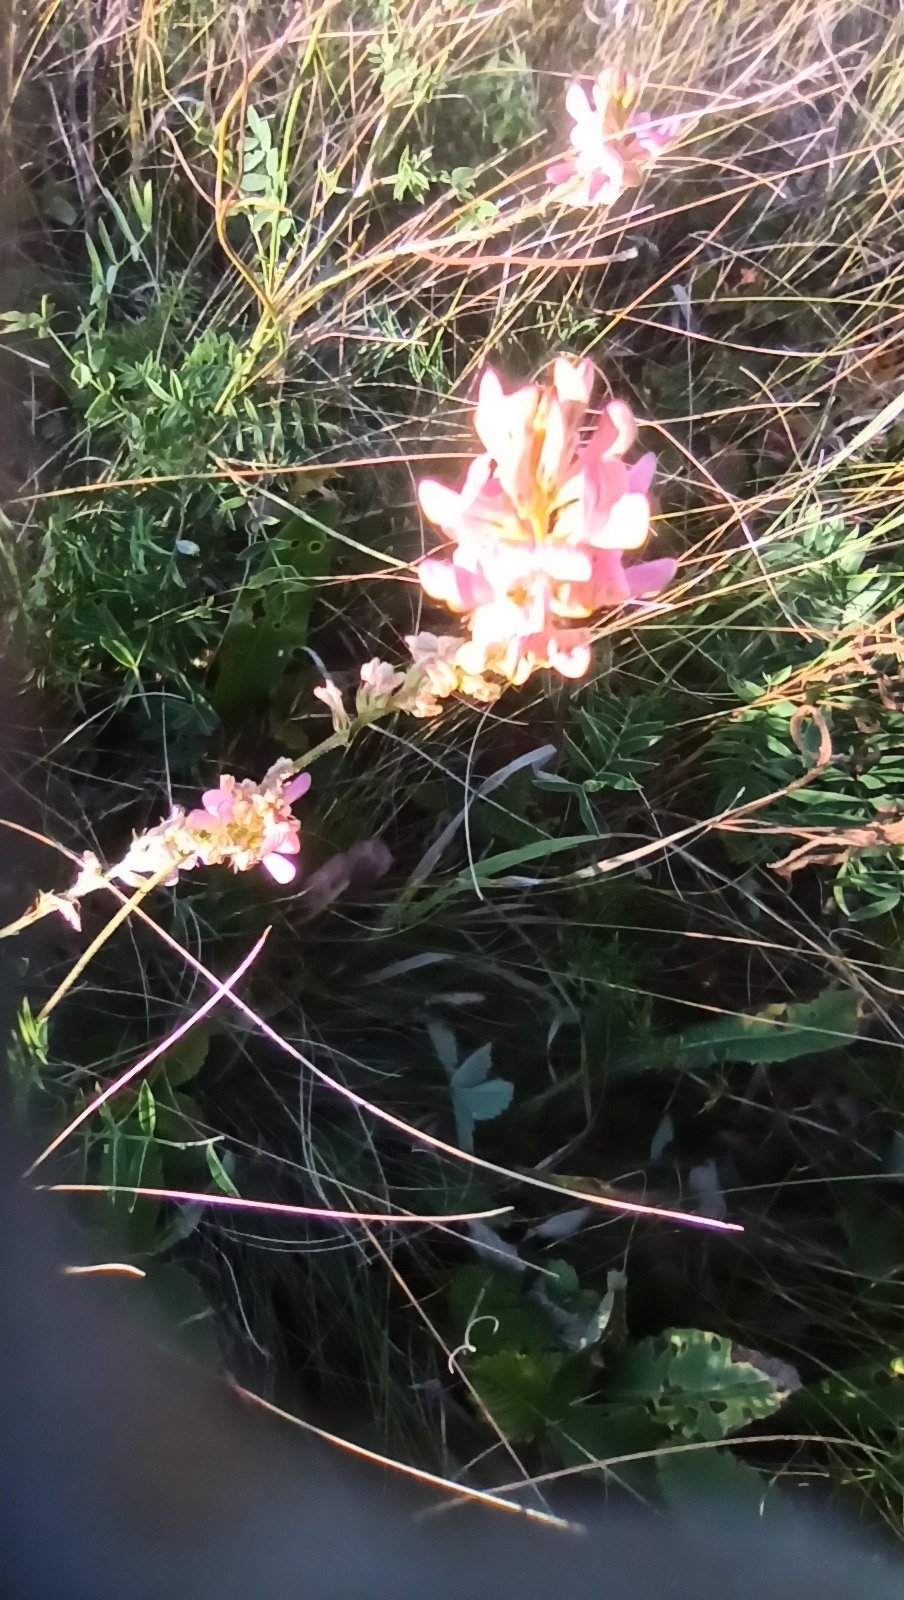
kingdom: Plantae
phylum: Tracheophyta
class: Magnoliopsida
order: Fabales
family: Fabaceae
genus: Onobrychis
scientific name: Onobrychis arenaria
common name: Sand esparcet
